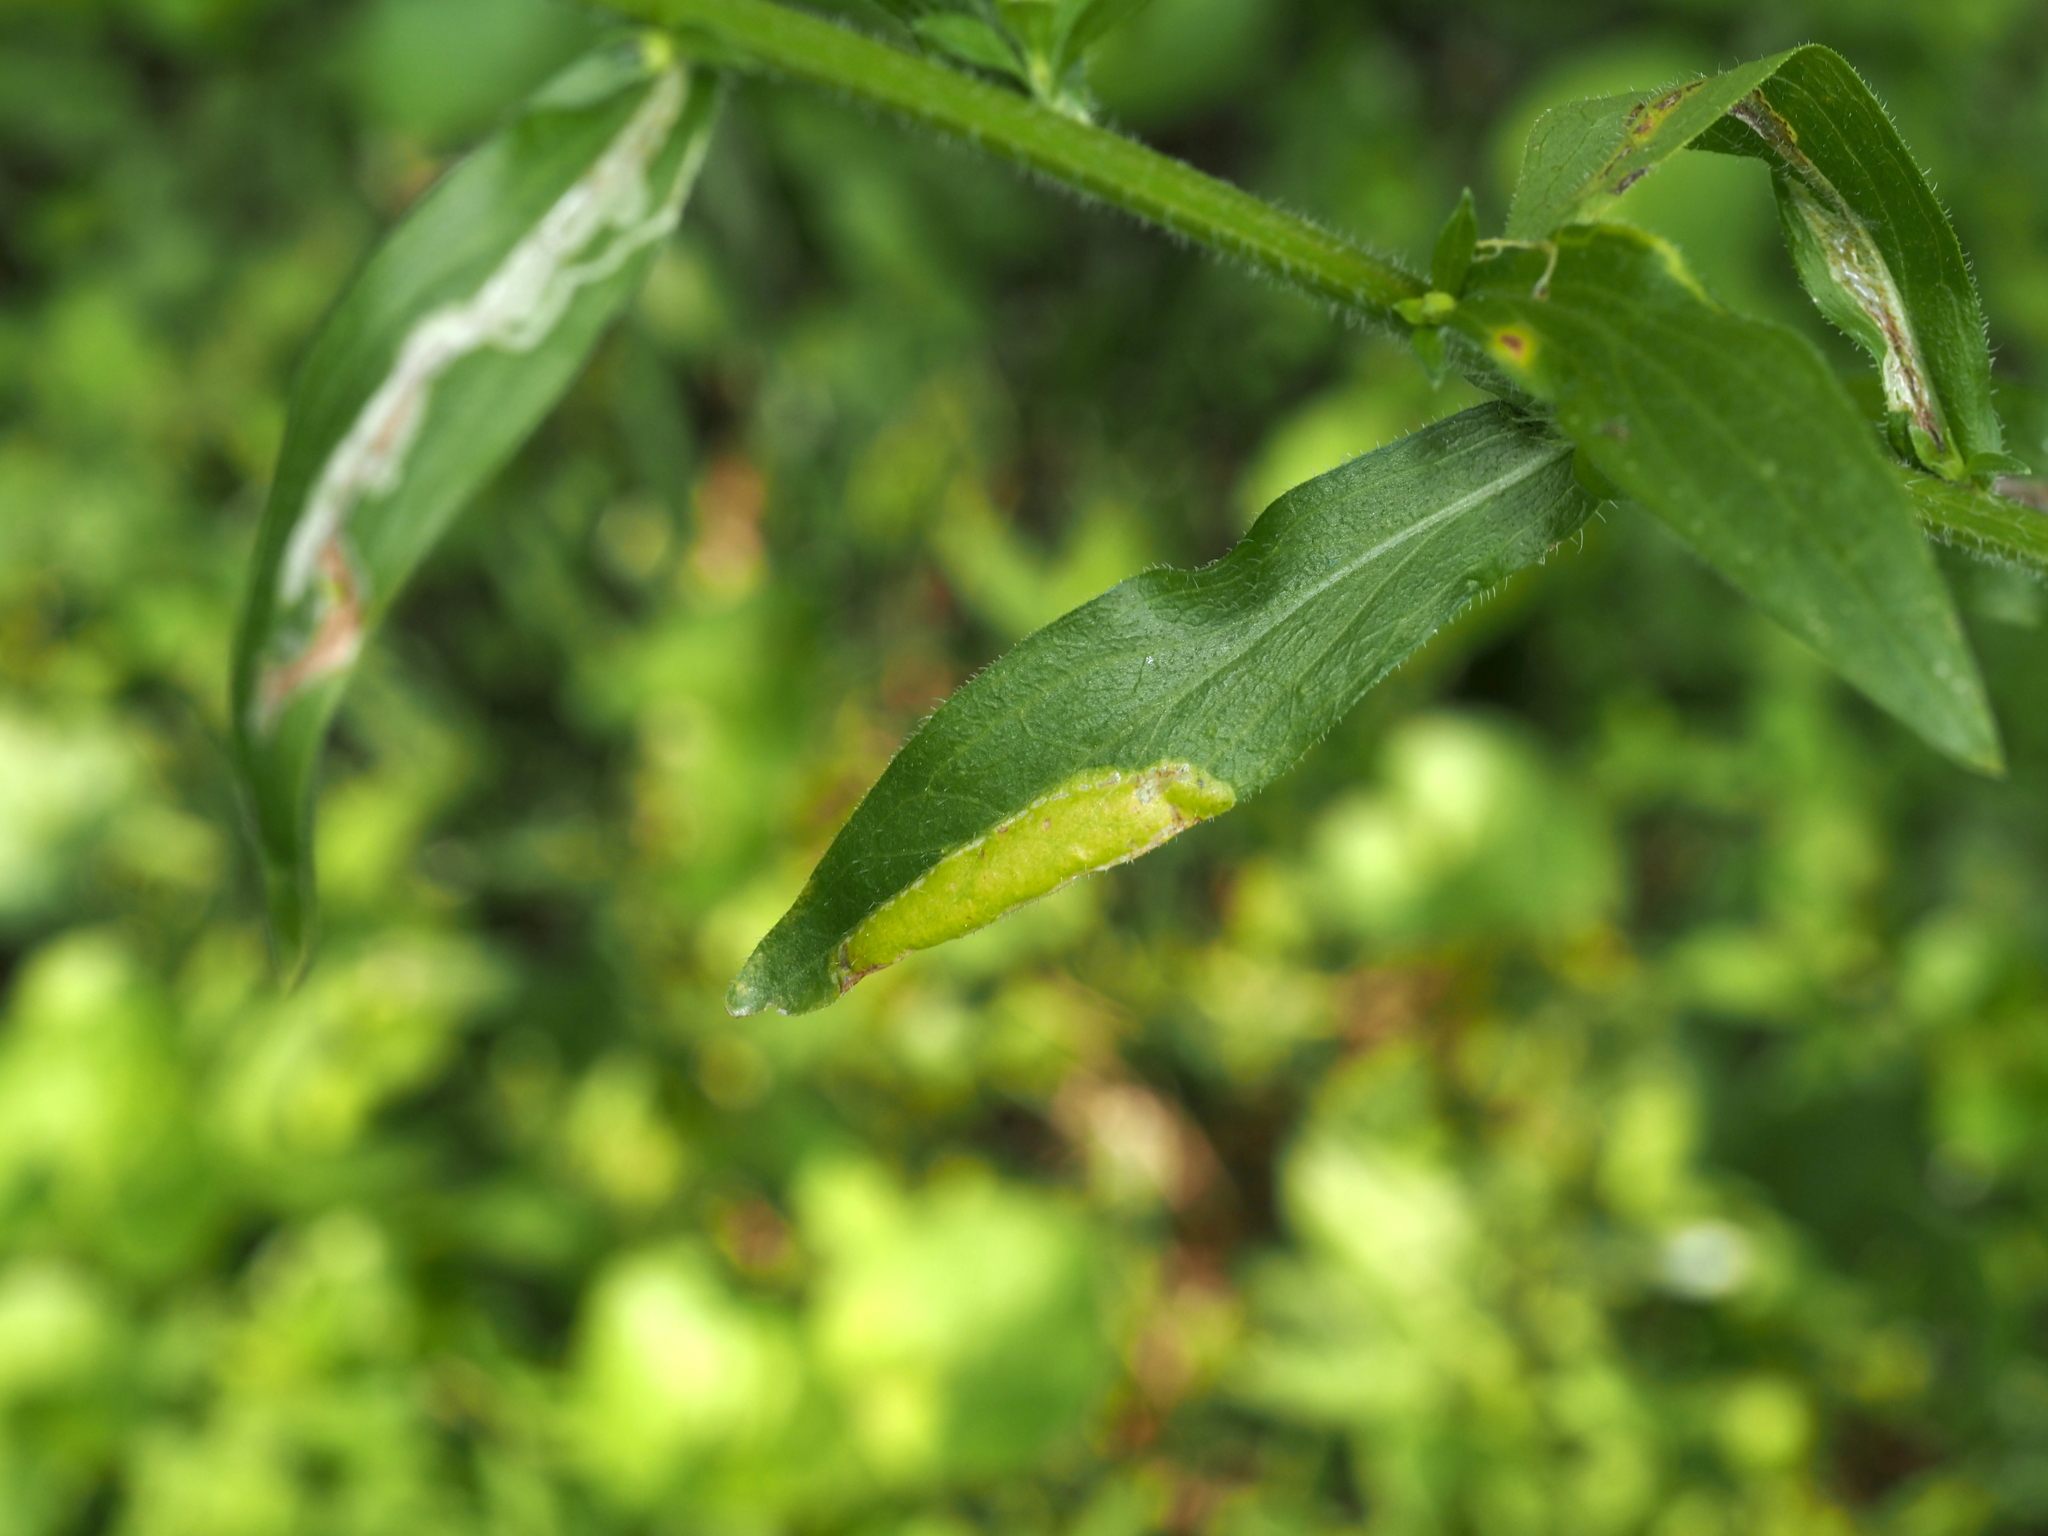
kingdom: Animalia
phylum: Arthropoda
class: Insecta
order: Lepidoptera
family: Gracillariidae
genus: Parectopa
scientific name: Parectopa plantaginisella
